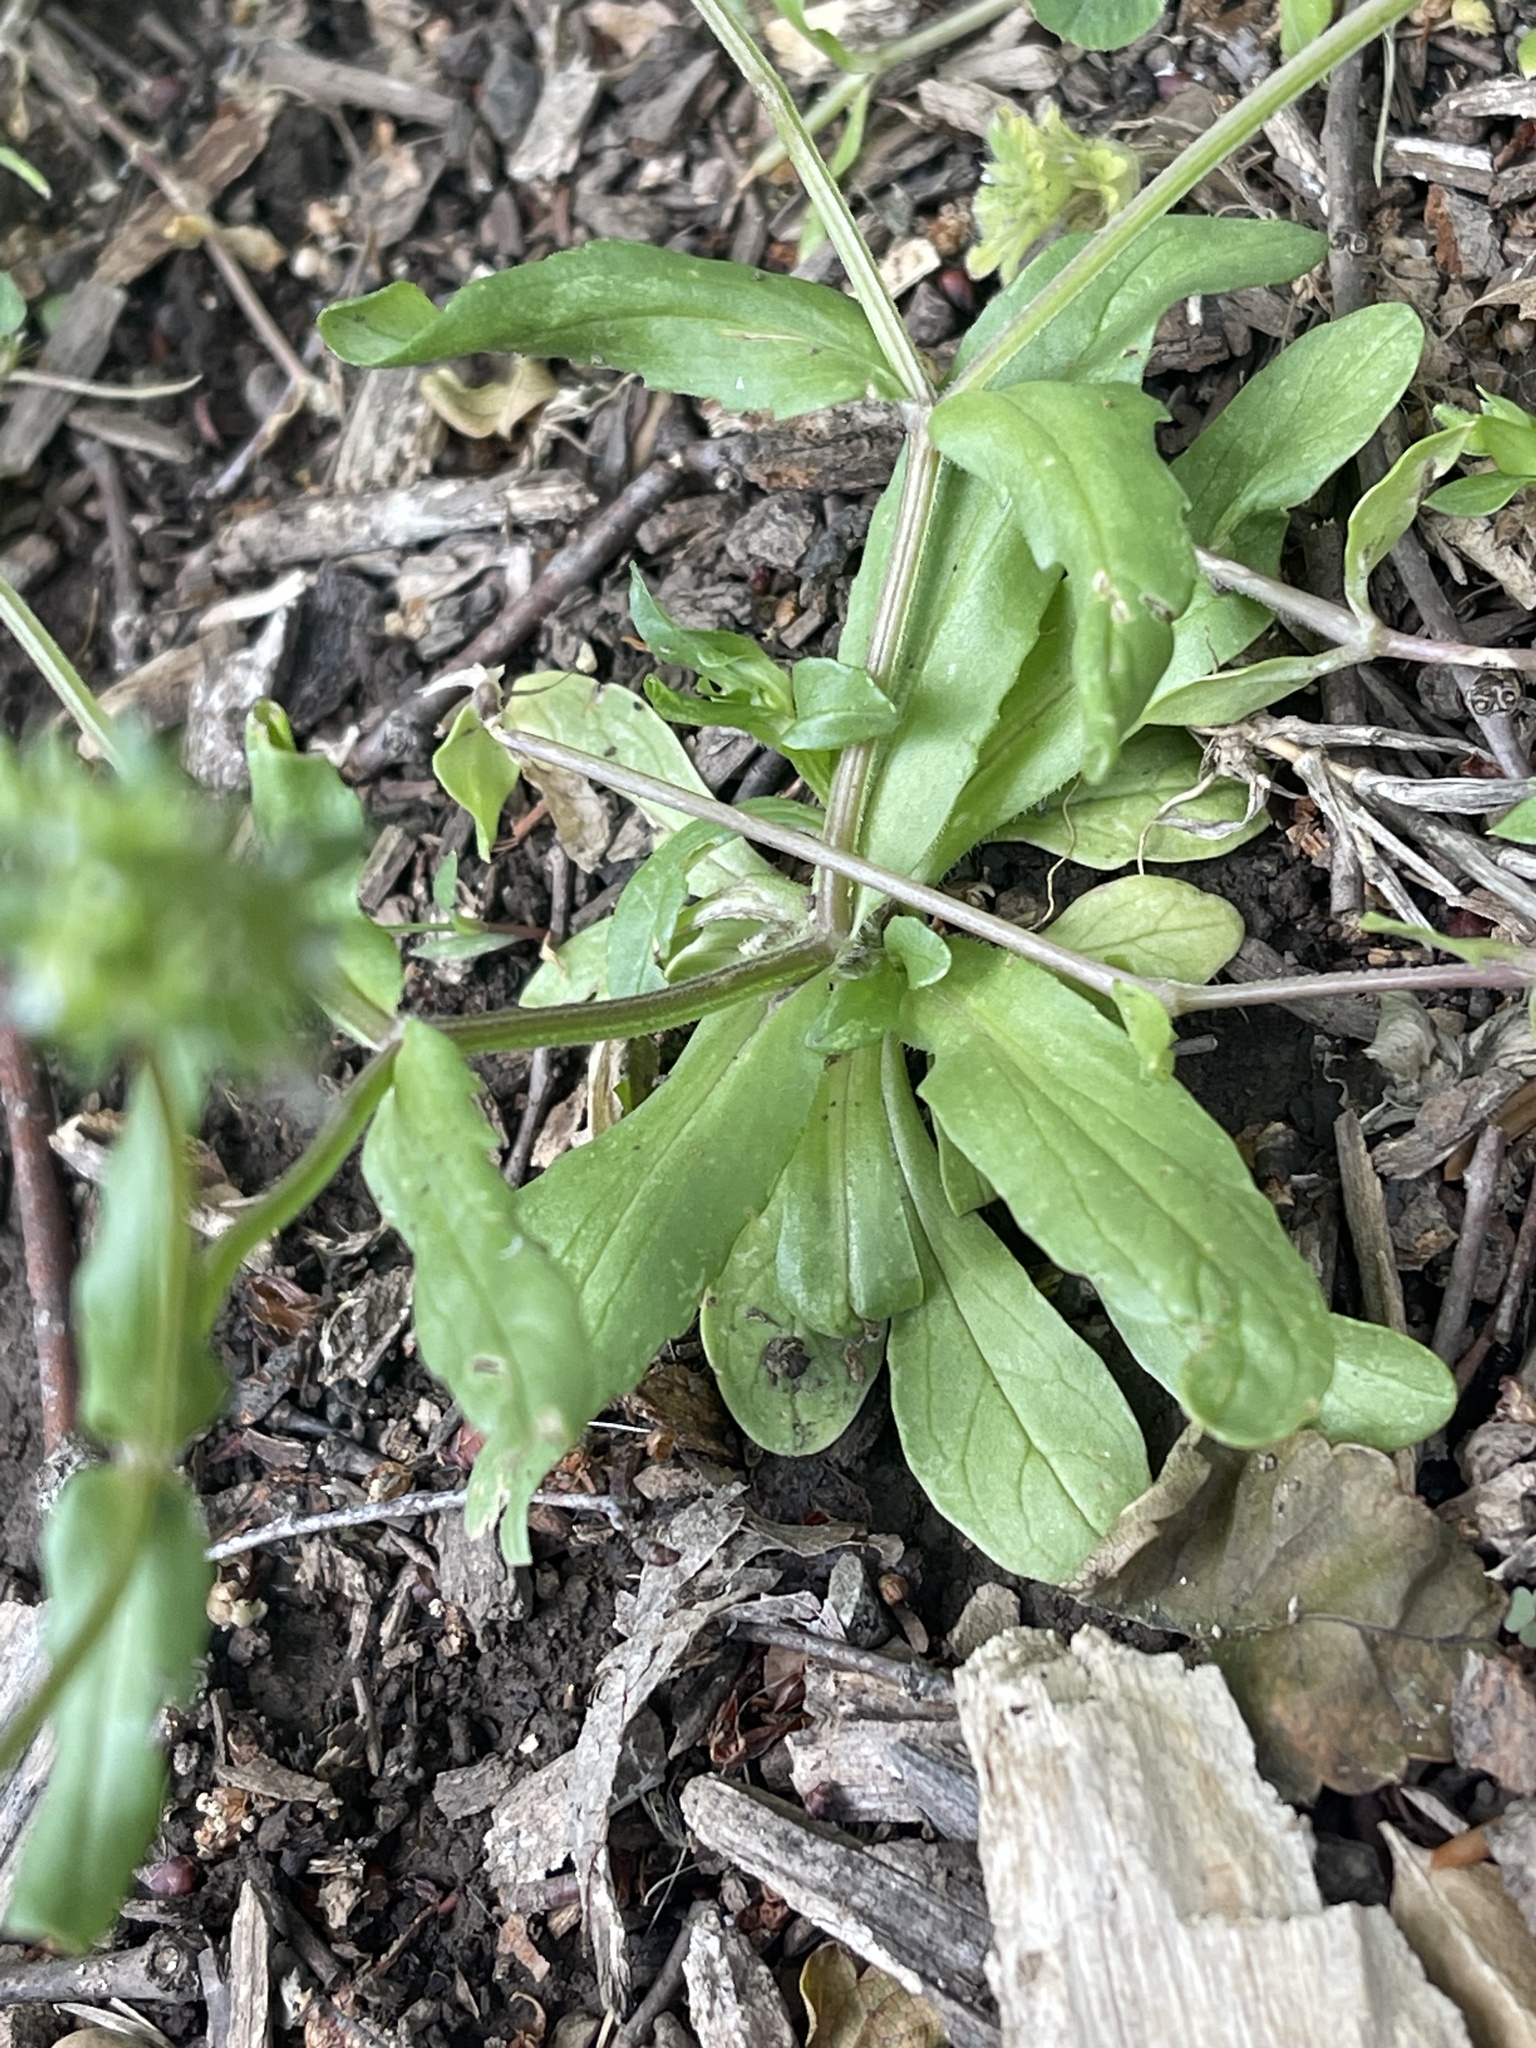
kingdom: Plantae
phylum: Tracheophyta
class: Magnoliopsida
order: Dipsacales
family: Caprifoliaceae
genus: Valerianella
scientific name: Valerianella radiata
